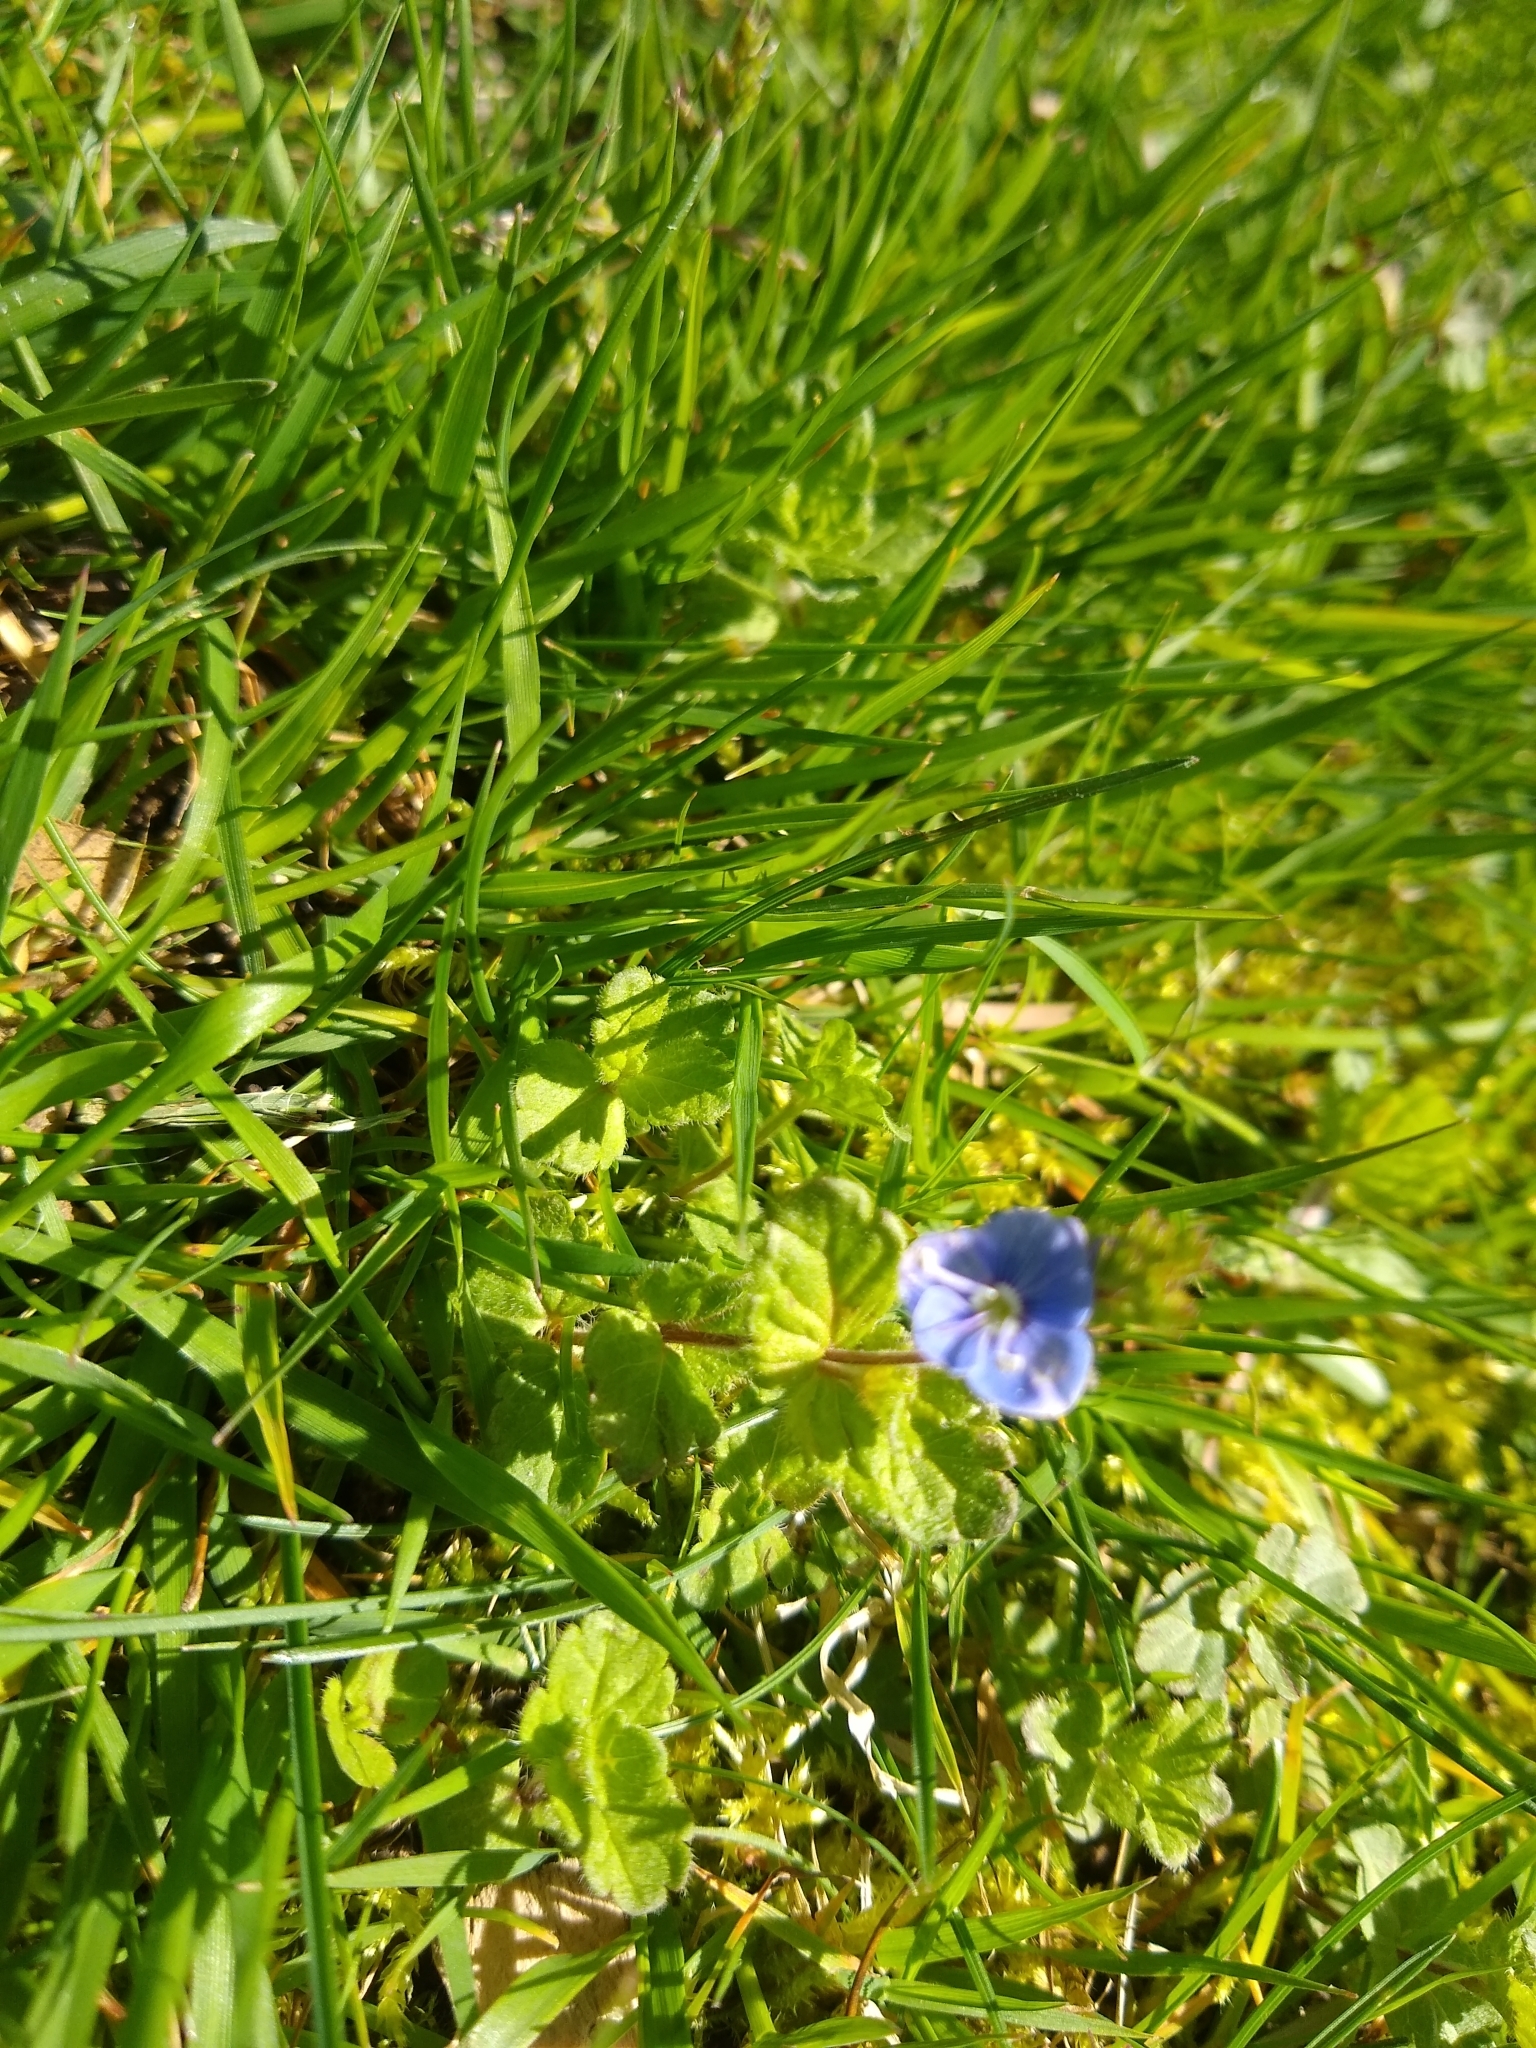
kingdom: Plantae
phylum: Tracheophyta
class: Magnoliopsida
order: Lamiales
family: Plantaginaceae
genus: Veronica
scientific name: Veronica chamaedrys
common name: Germander speedwell
